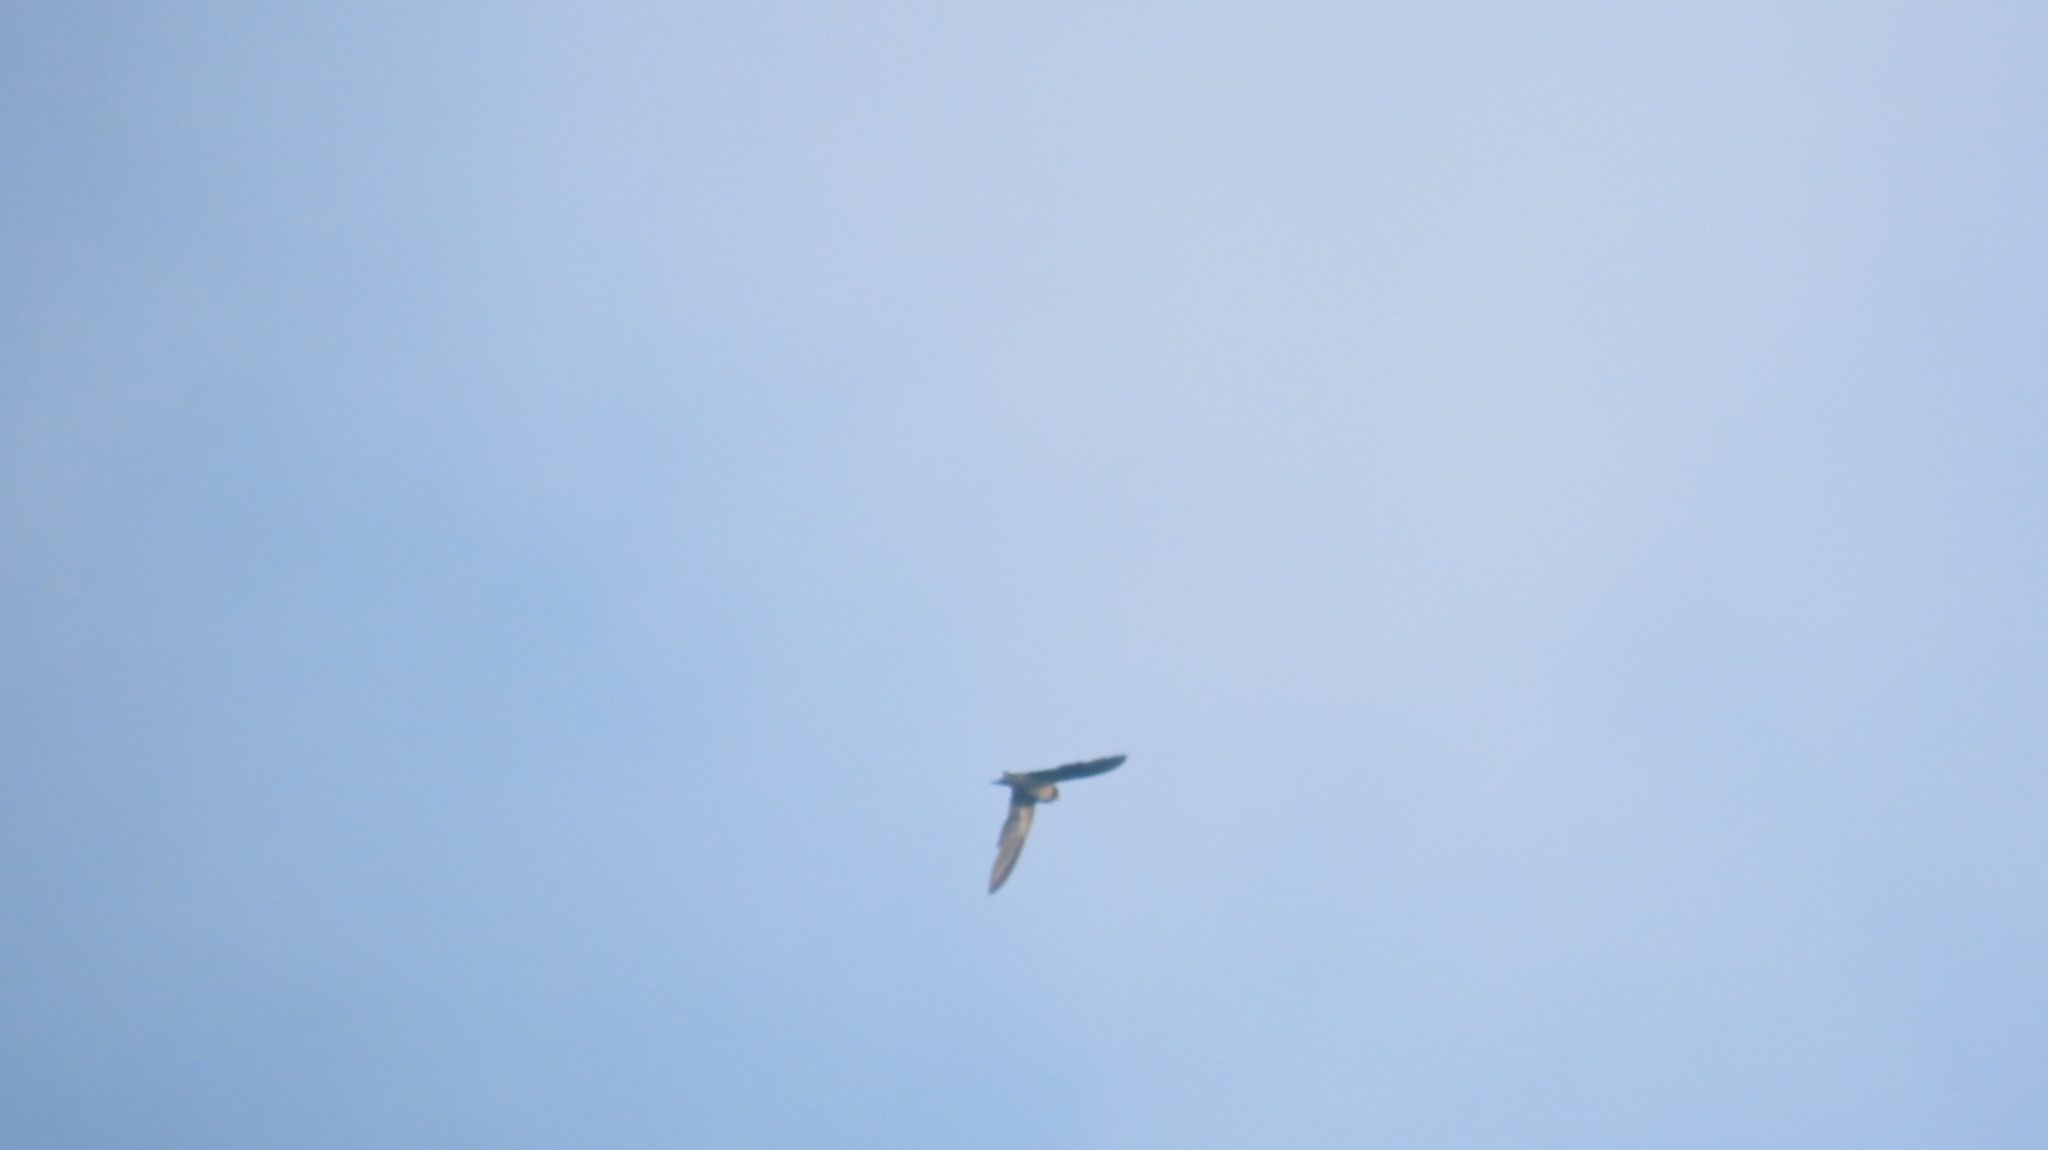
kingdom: Animalia
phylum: Chordata
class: Aves
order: Passeriformes
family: Hirundinidae
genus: Hirundo
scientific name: Hirundo rustica
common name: Barn swallow
